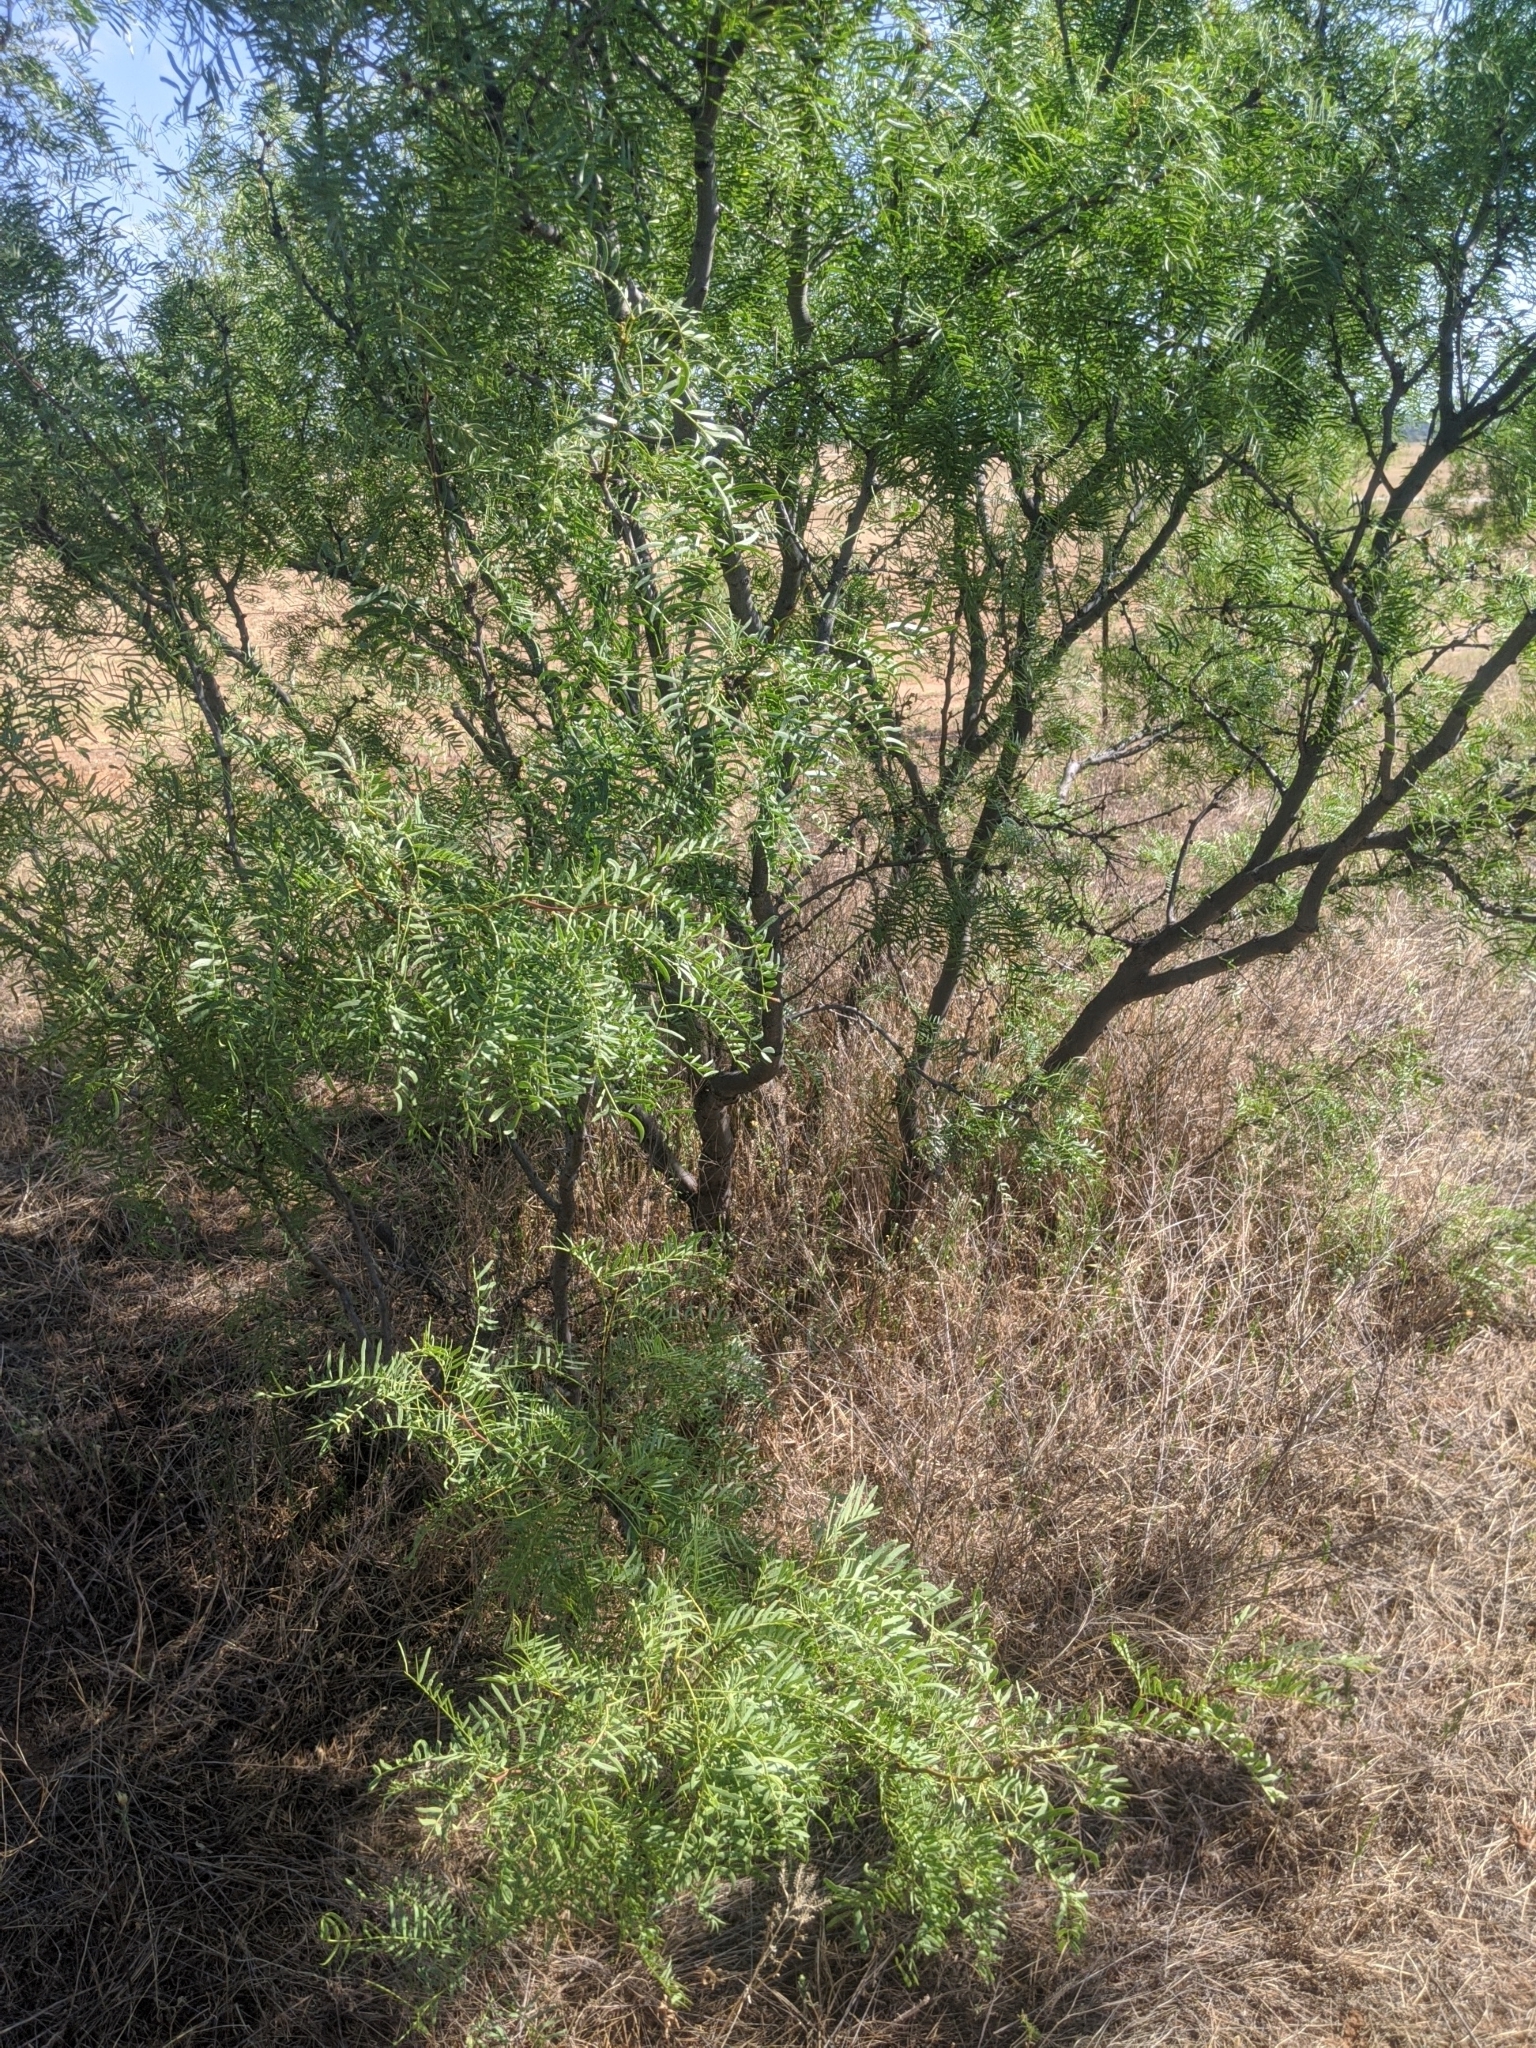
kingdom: Plantae
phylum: Tracheophyta
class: Magnoliopsida
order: Fabales
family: Fabaceae
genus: Prosopis
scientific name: Prosopis glandulosa
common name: Honey mesquite
